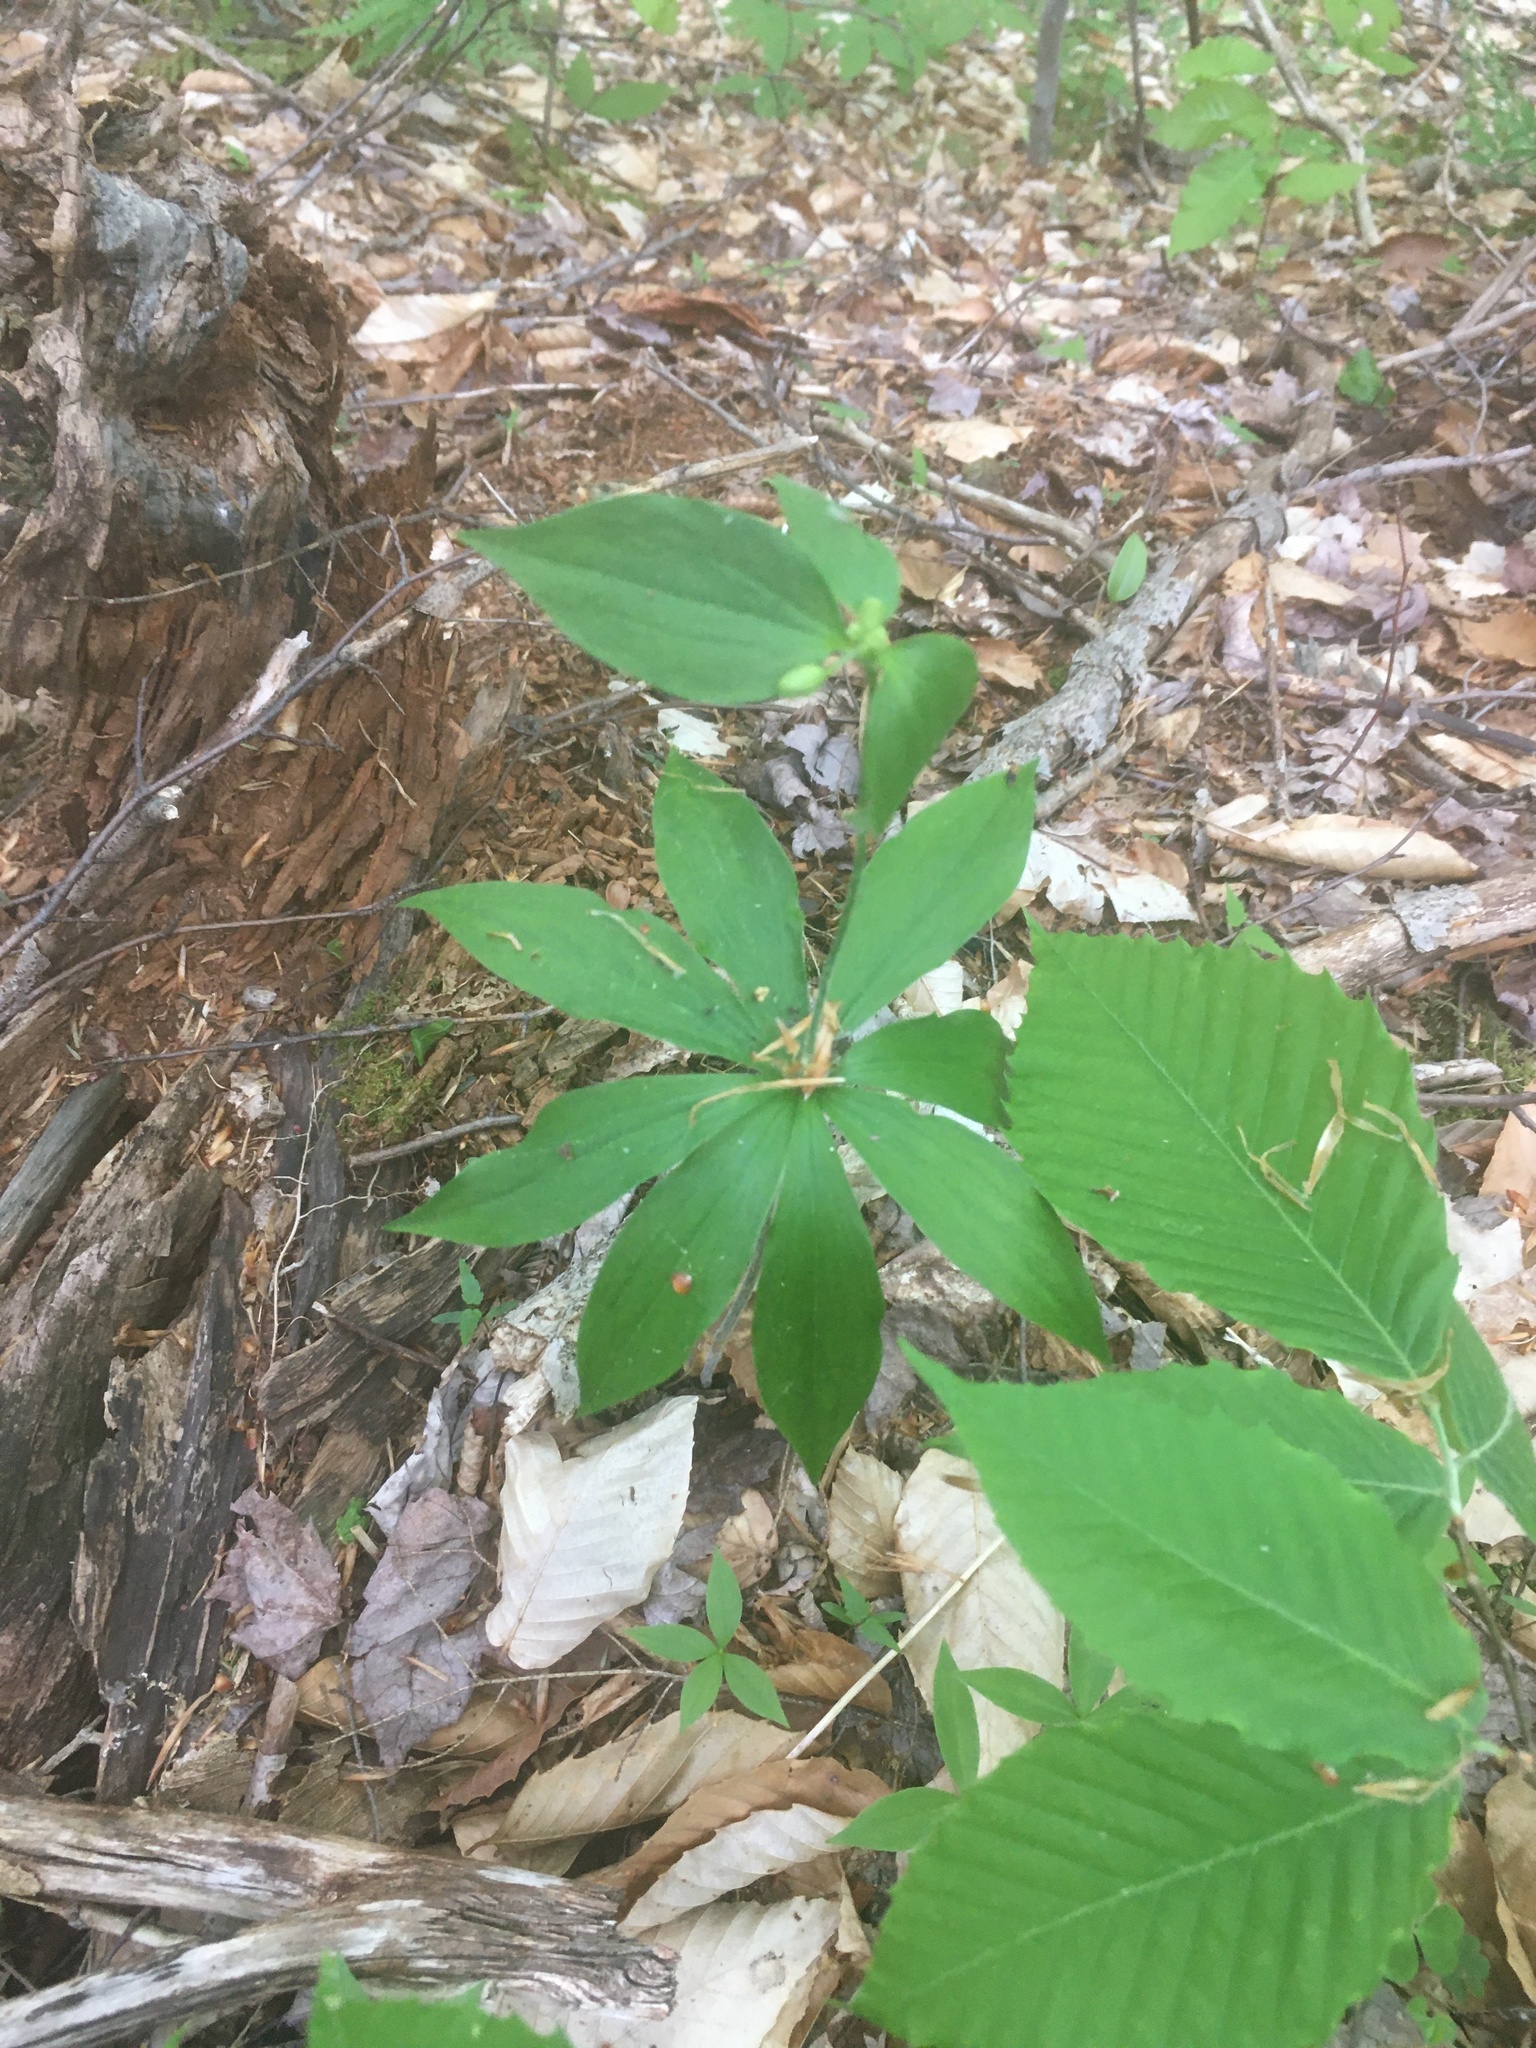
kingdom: Plantae
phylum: Tracheophyta
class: Liliopsida
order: Liliales
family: Liliaceae
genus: Medeola
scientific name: Medeola virginiana
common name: Indian cucumber-root
